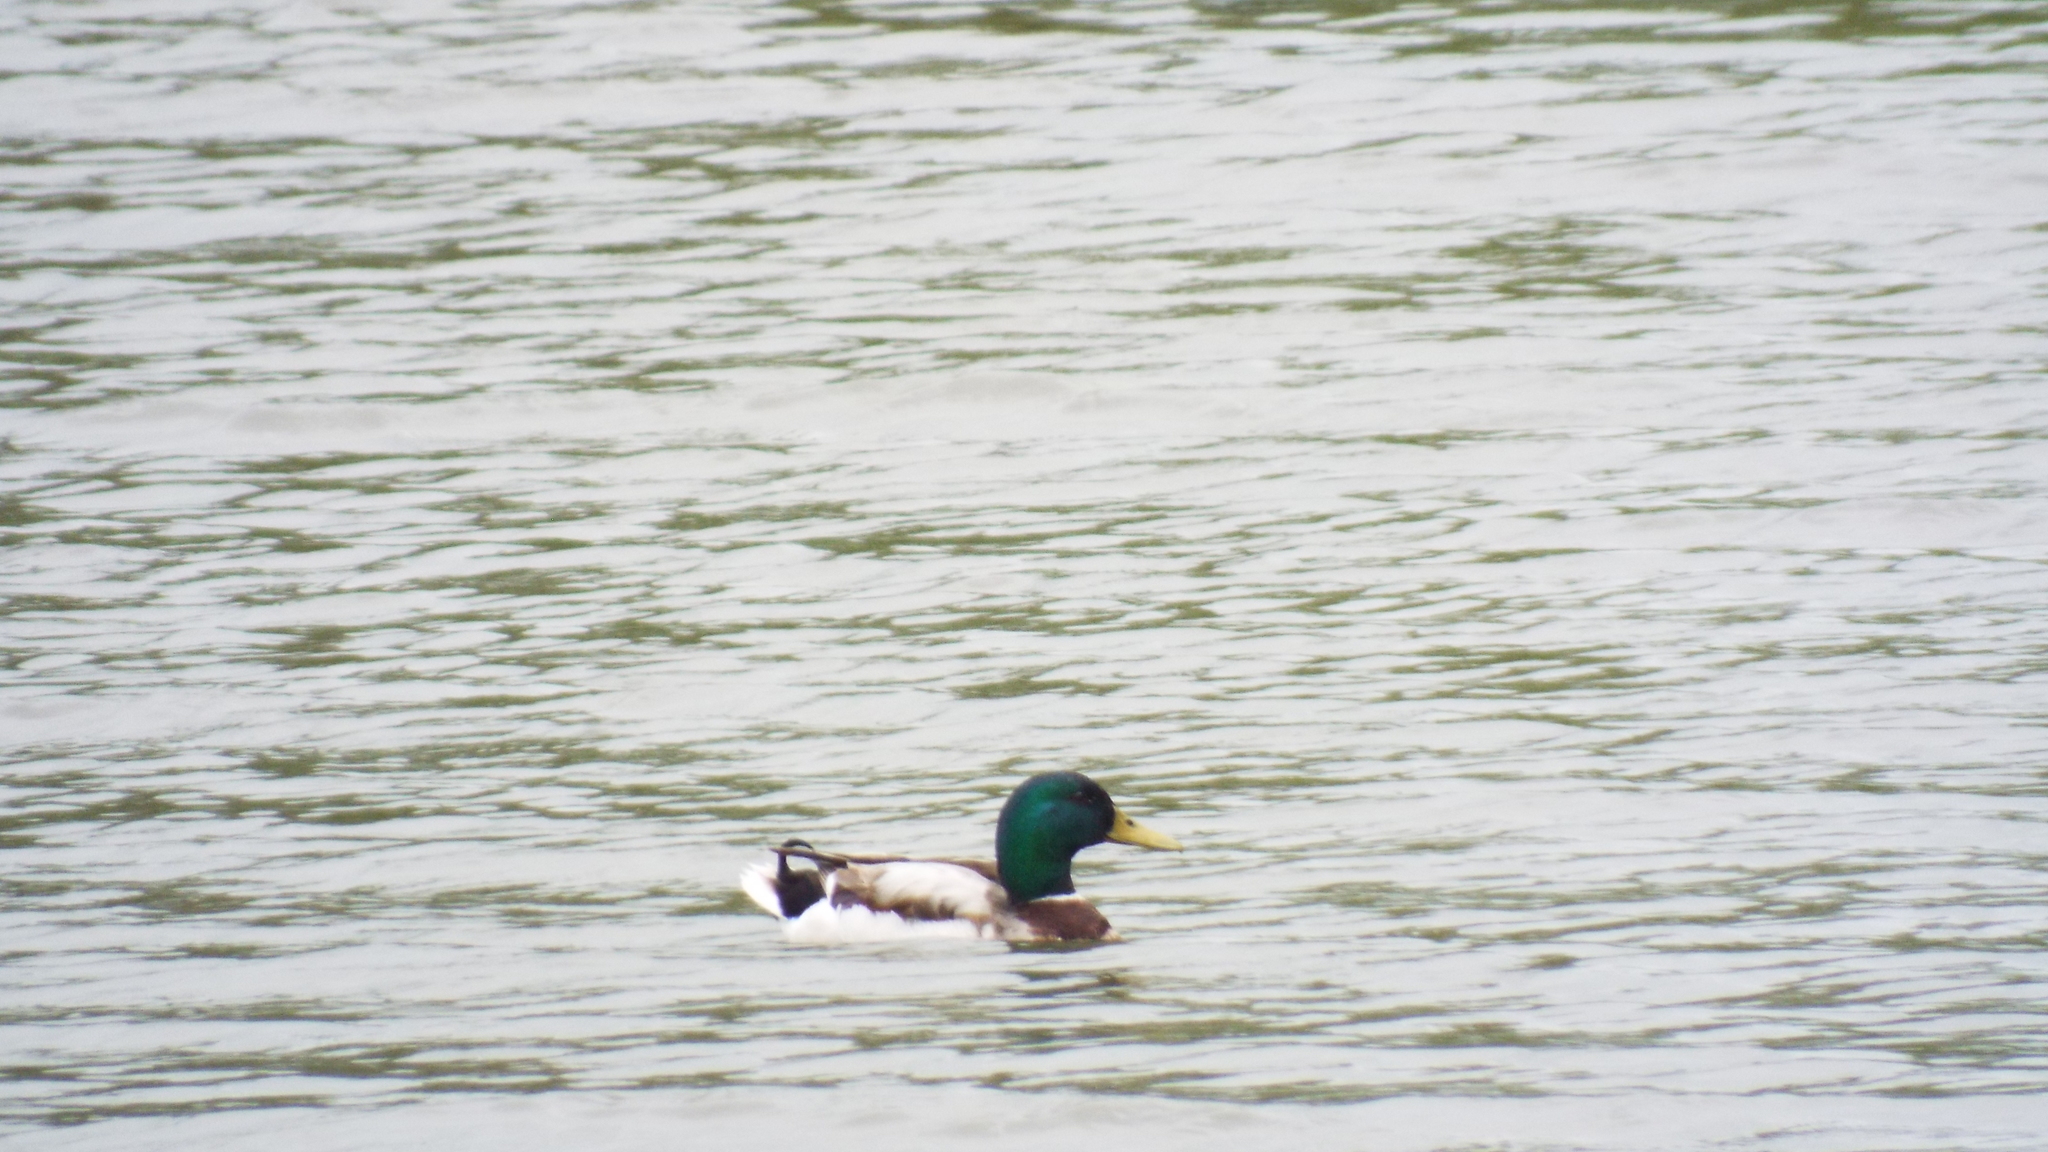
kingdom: Animalia
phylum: Chordata
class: Aves
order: Anseriformes
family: Anatidae
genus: Anas
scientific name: Anas platyrhynchos
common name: Mallard
